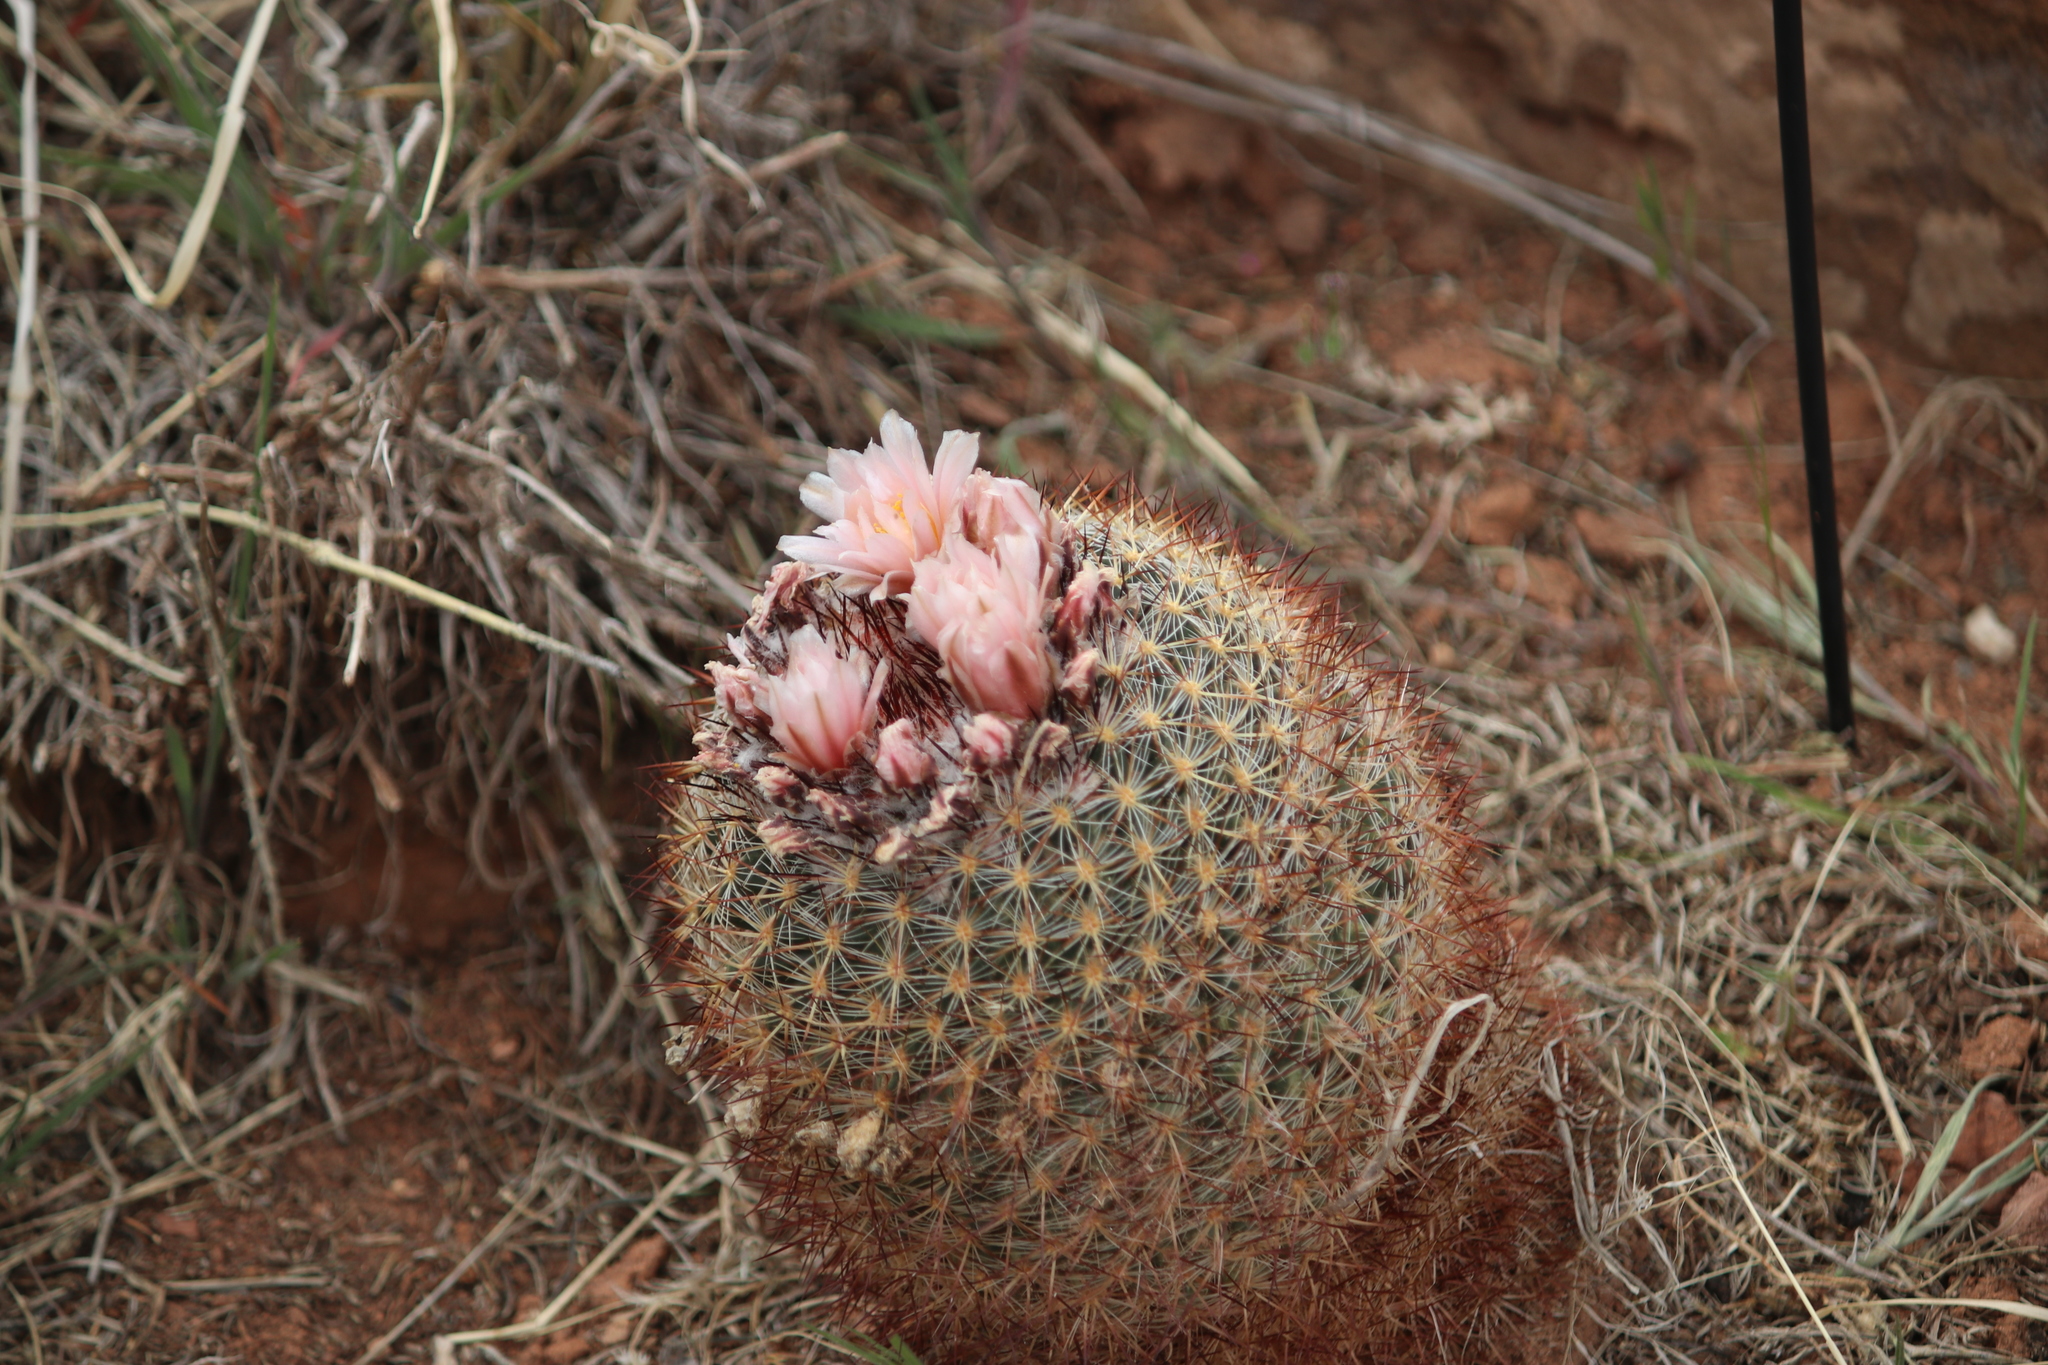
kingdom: Plantae
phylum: Tracheophyta
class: Magnoliopsida
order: Caryophyllales
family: Cactaceae
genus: Pediocactus
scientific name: Pediocactus simpsonii
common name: Simpson's hedgehog cactus
